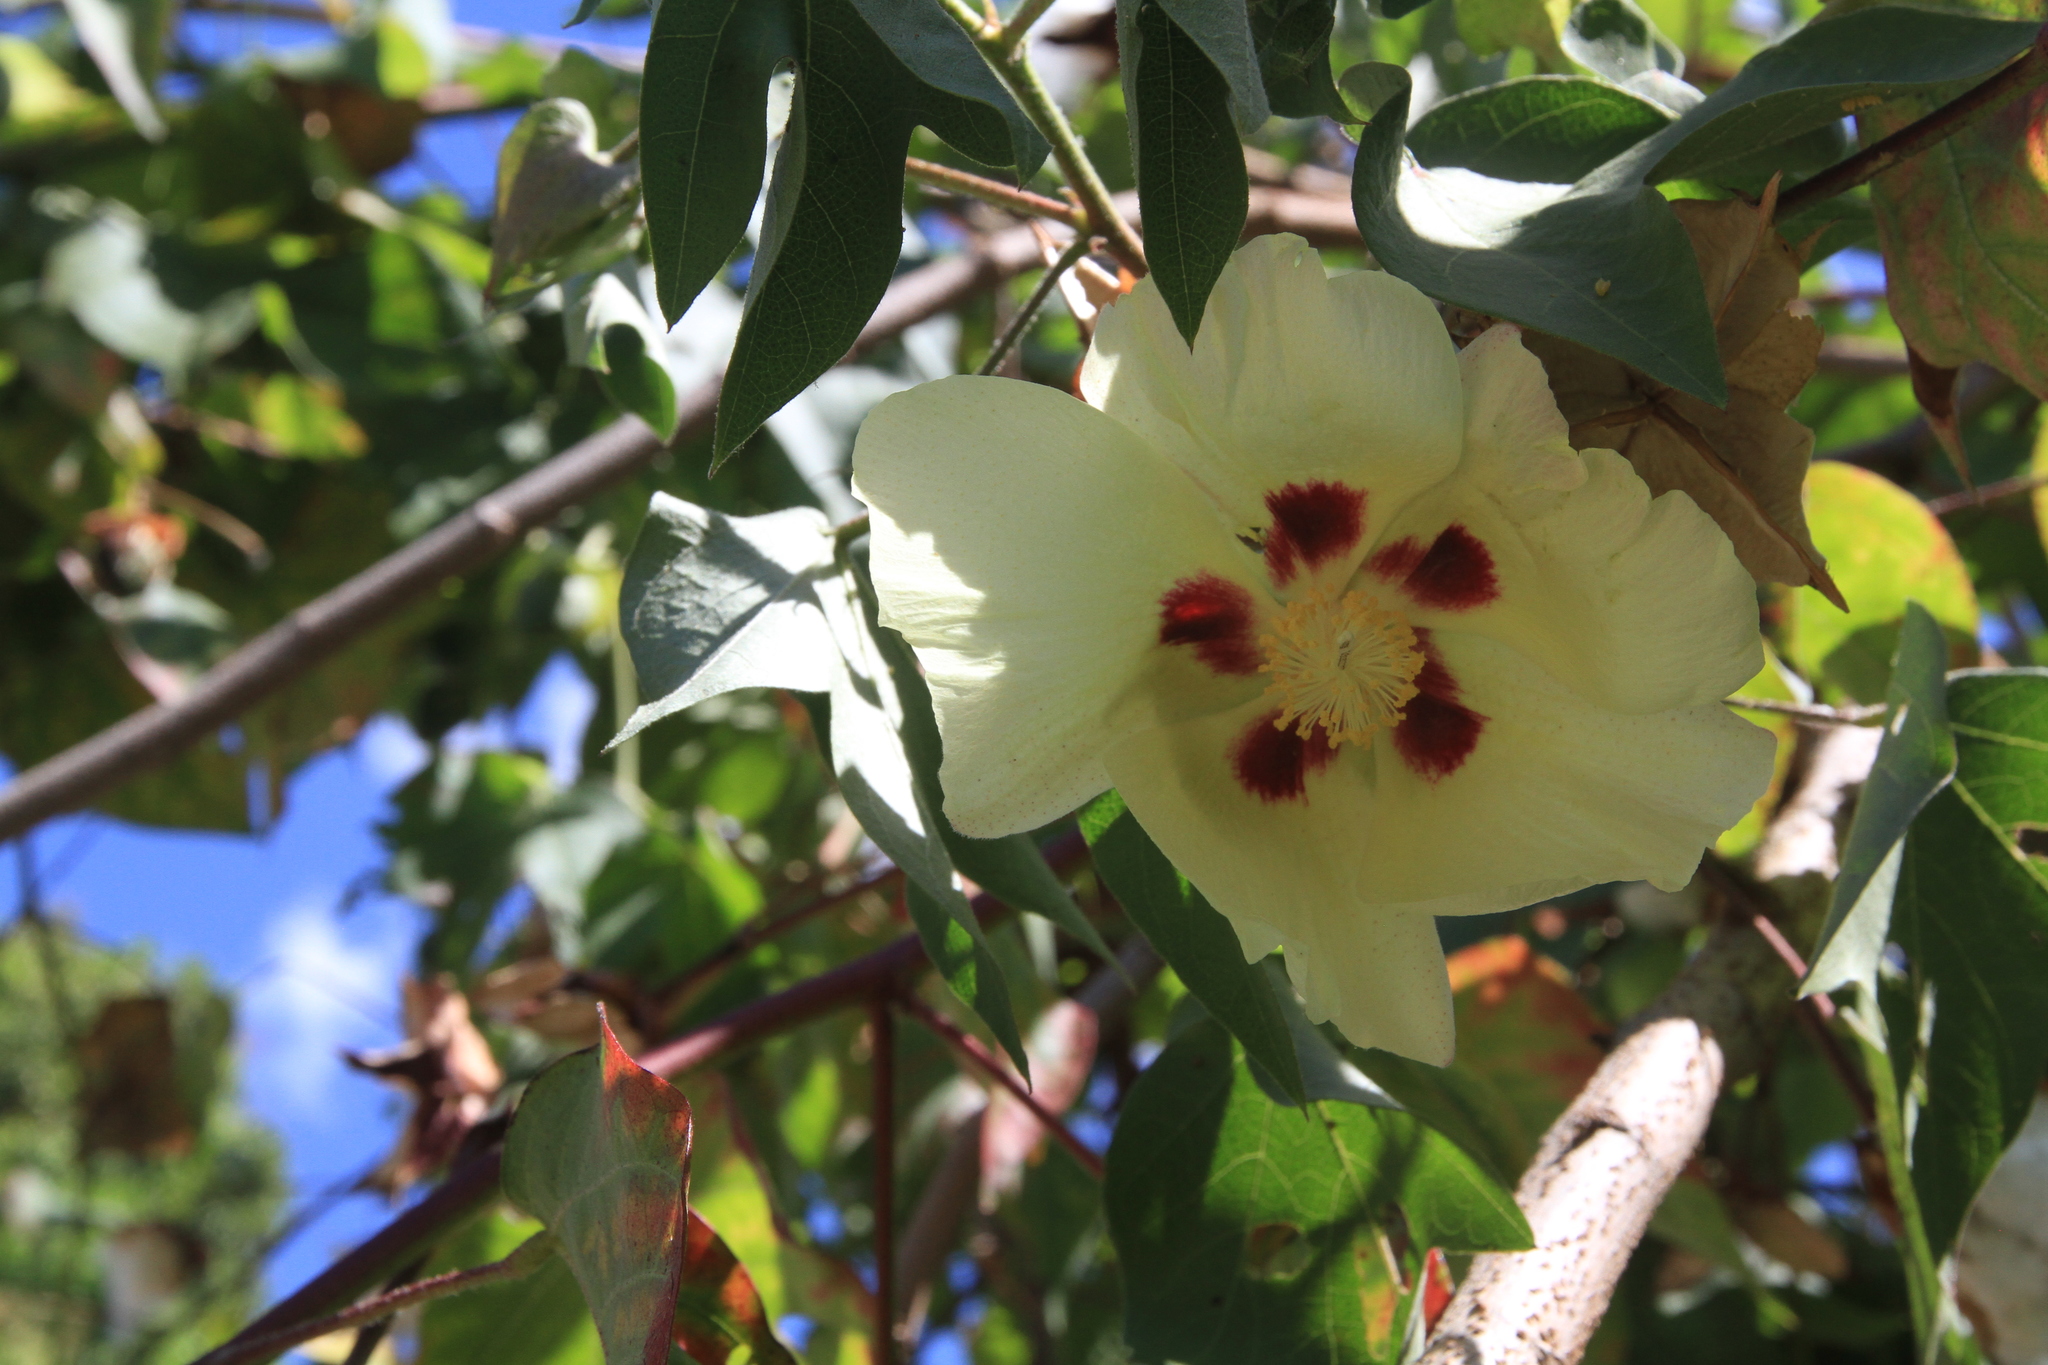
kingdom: Plantae
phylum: Tracheophyta
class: Magnoliopsida
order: Malvales
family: Malvaceae
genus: Gossypium
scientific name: Gossypium hirsutum
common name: Cotton
